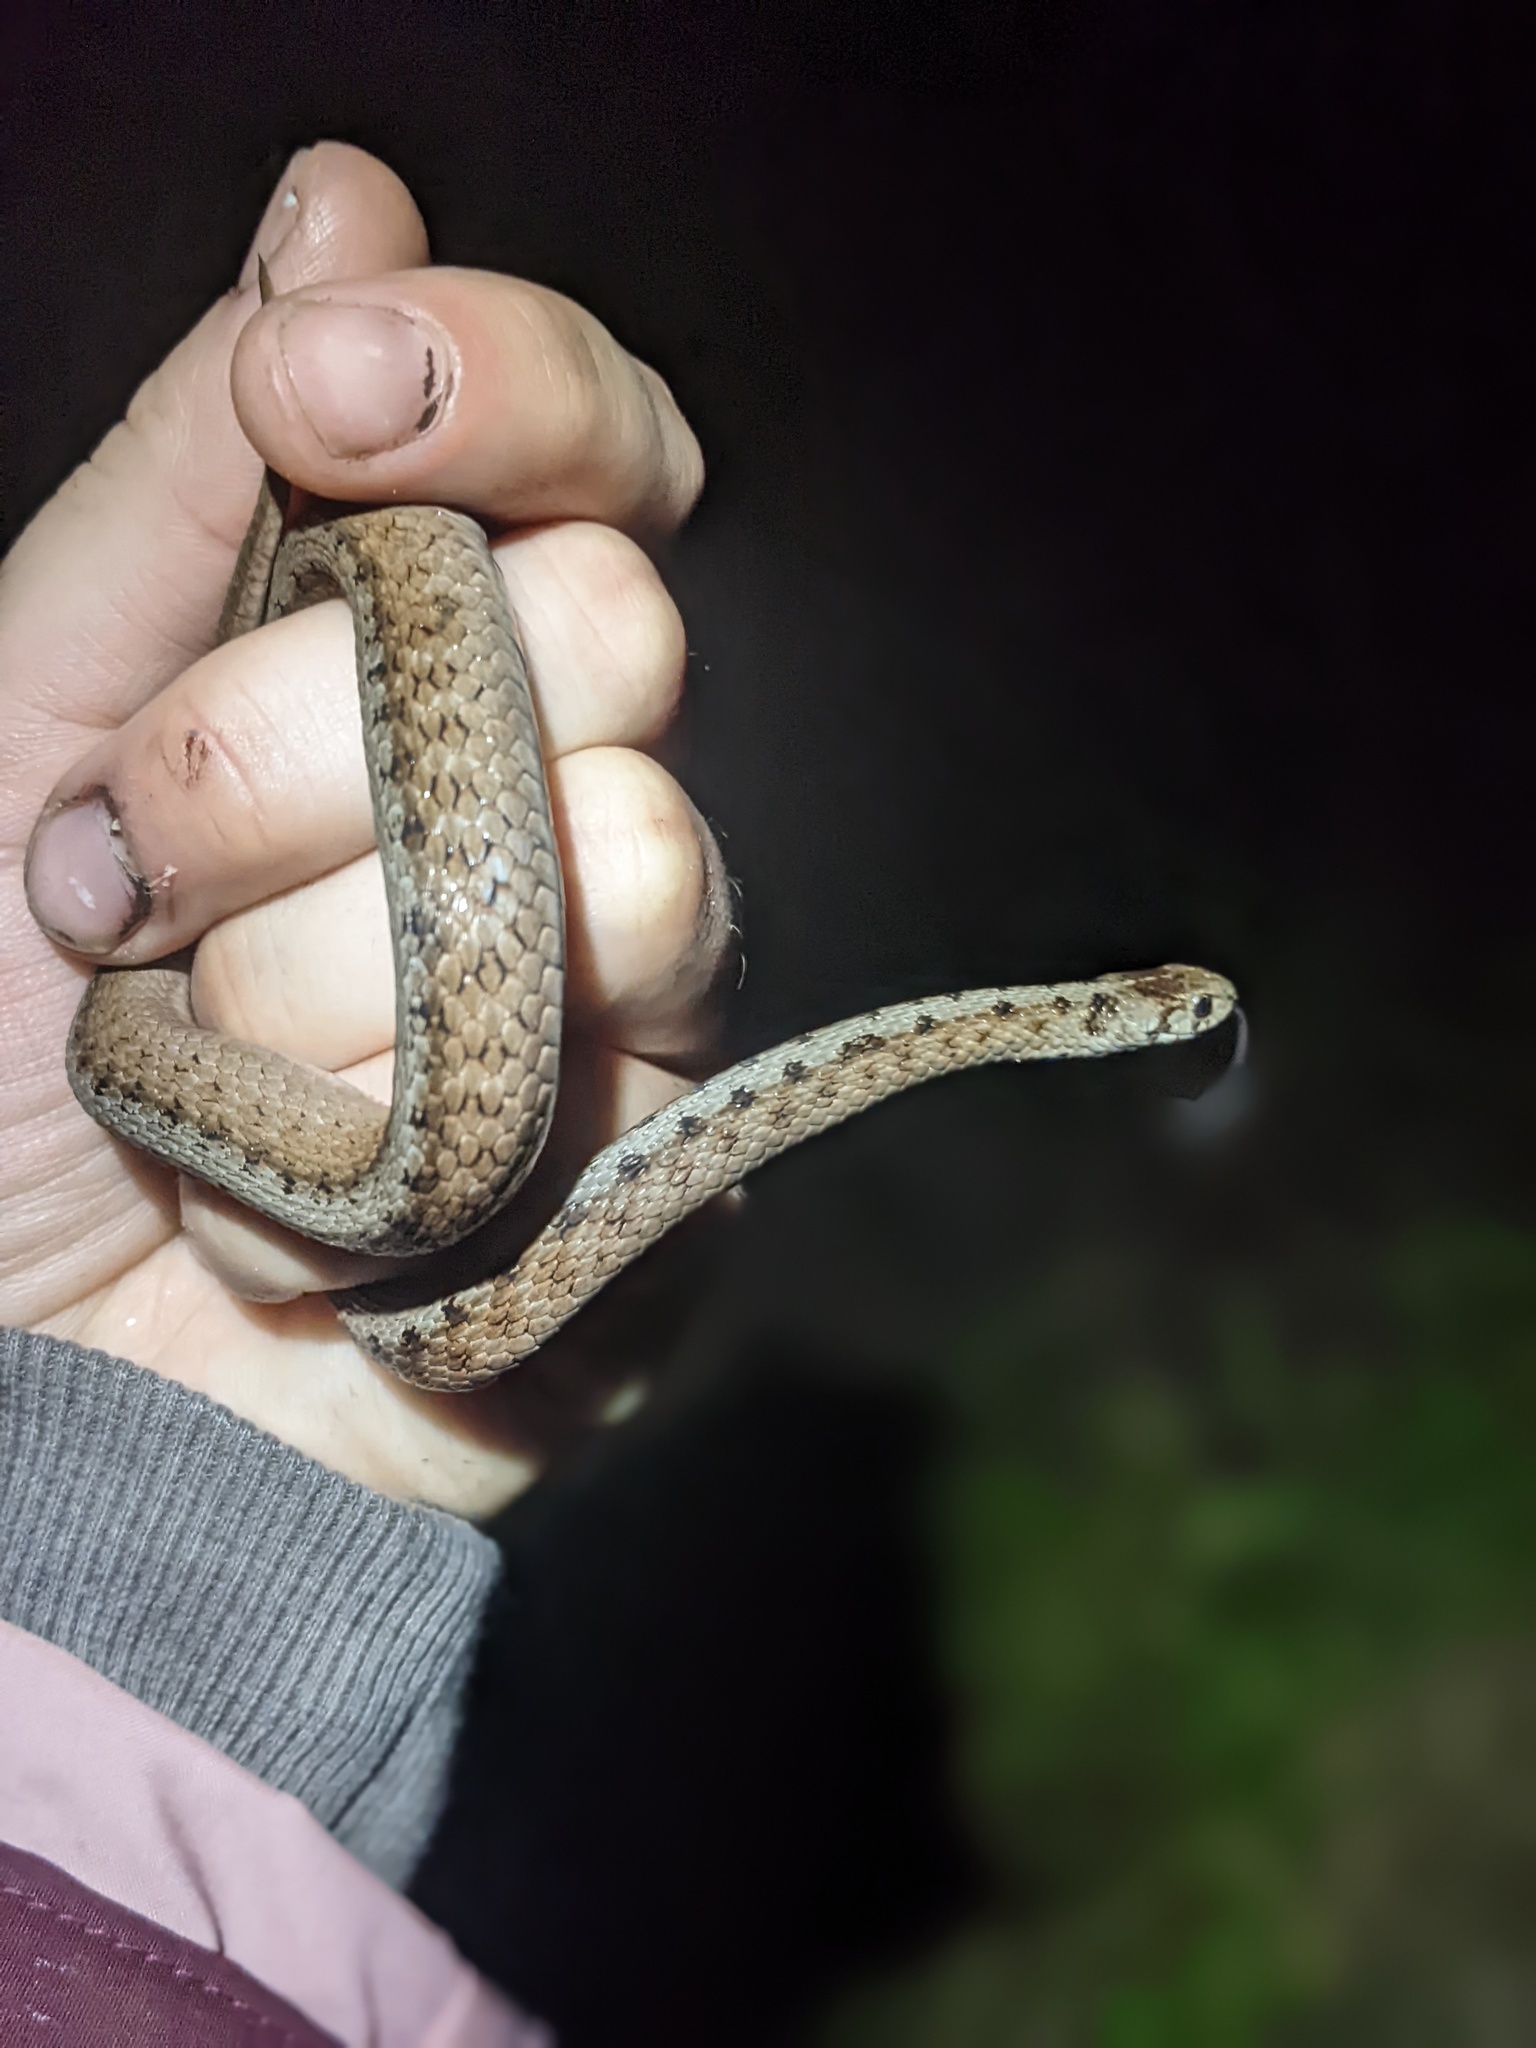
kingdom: Animalia
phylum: Chordata
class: Squamata
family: Colubridae
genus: Storeria
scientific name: Storeria dekayi
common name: (dekay’s) brown snake
